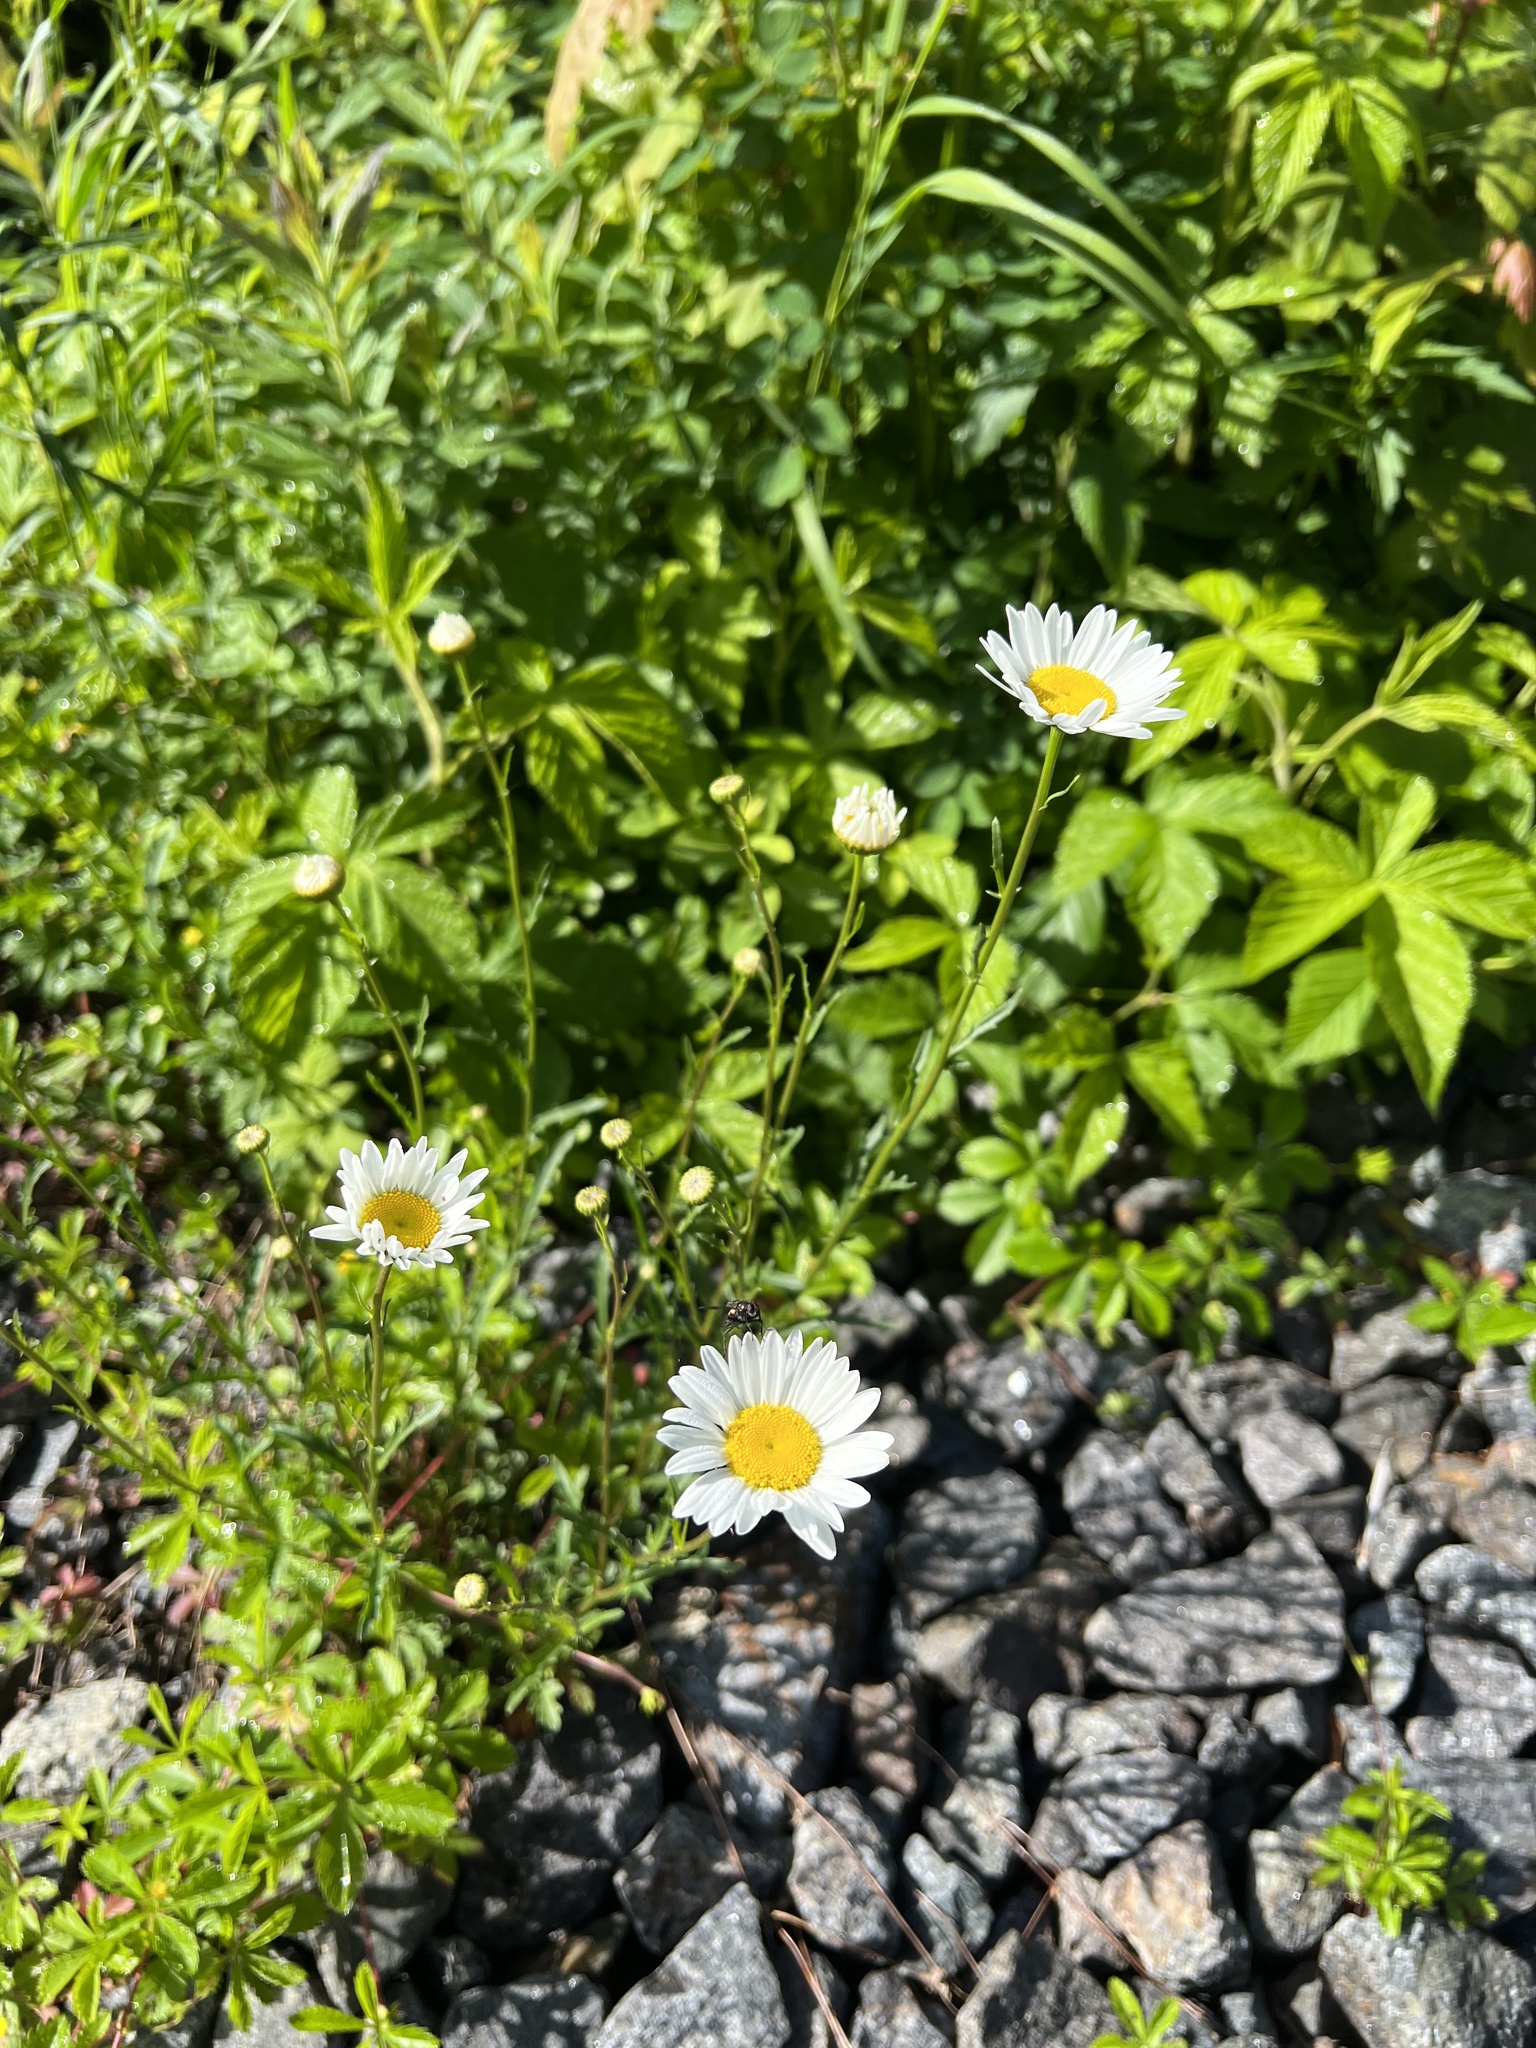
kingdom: Plantae
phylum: Tracheophyta
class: Magnoliopsida
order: Asterales
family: Asteraceae
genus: Leucanthemum
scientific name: Leucanthemum vulgare
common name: Oxeye daisy
